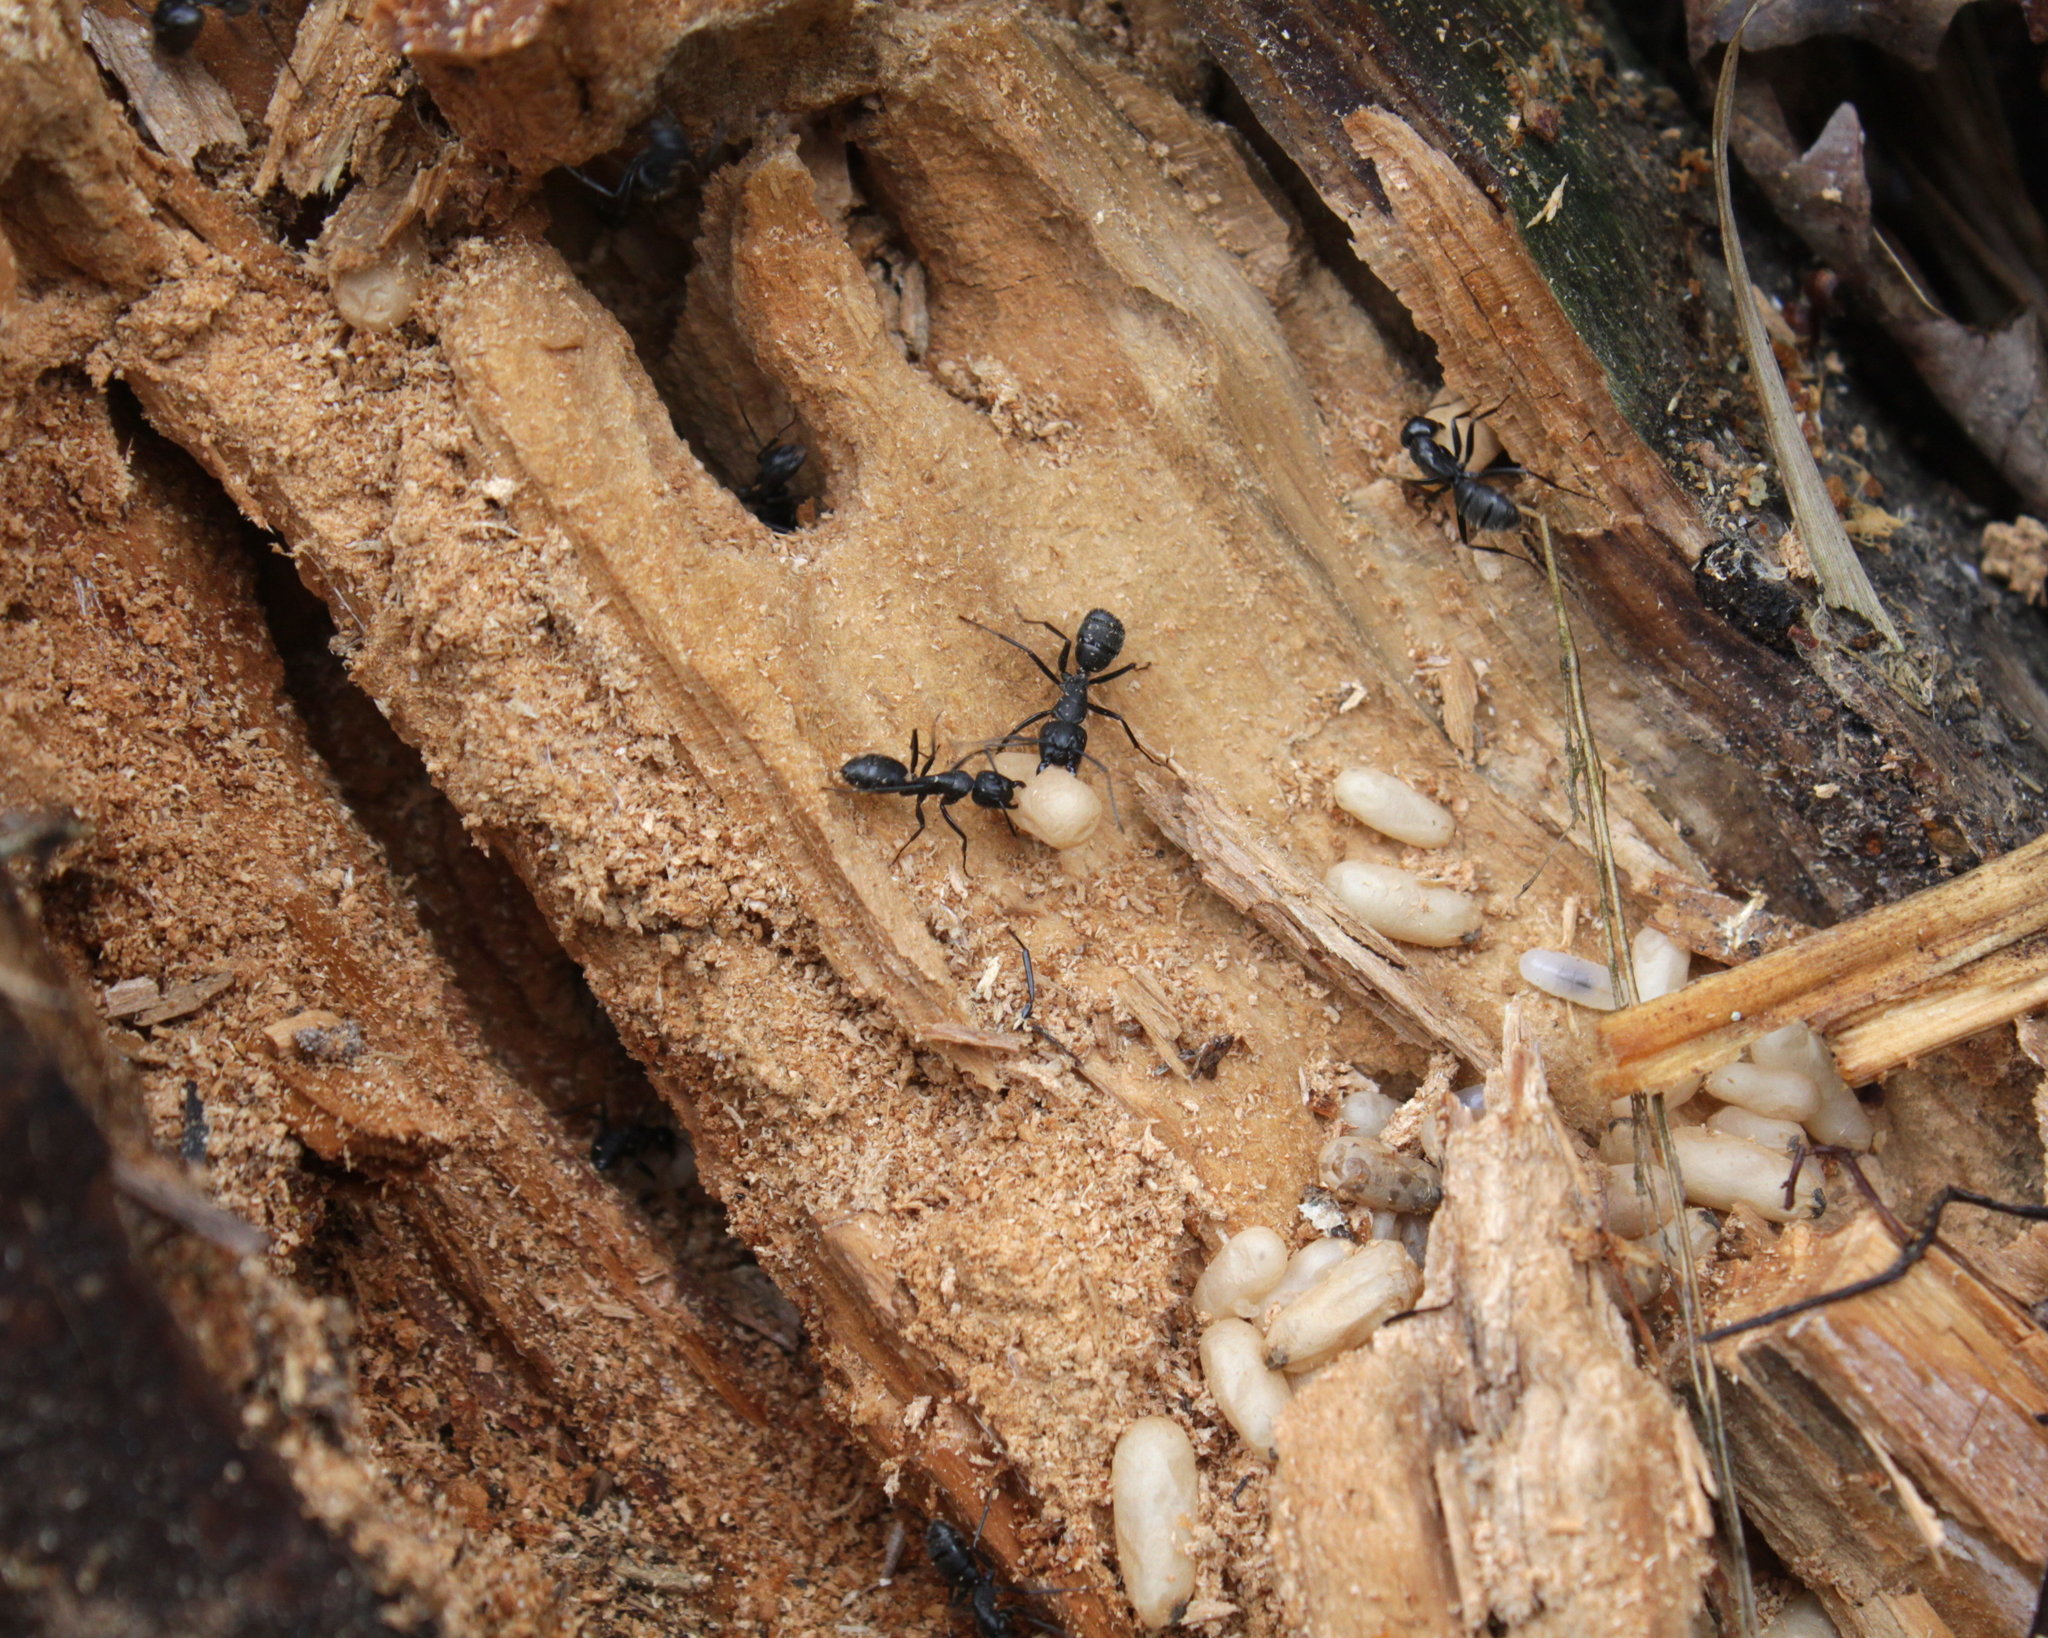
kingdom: Animalia
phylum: Arthropoda
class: Insecta
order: Hymenoptera
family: Formicidae
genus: Camponotus
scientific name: Camponotus vagus
